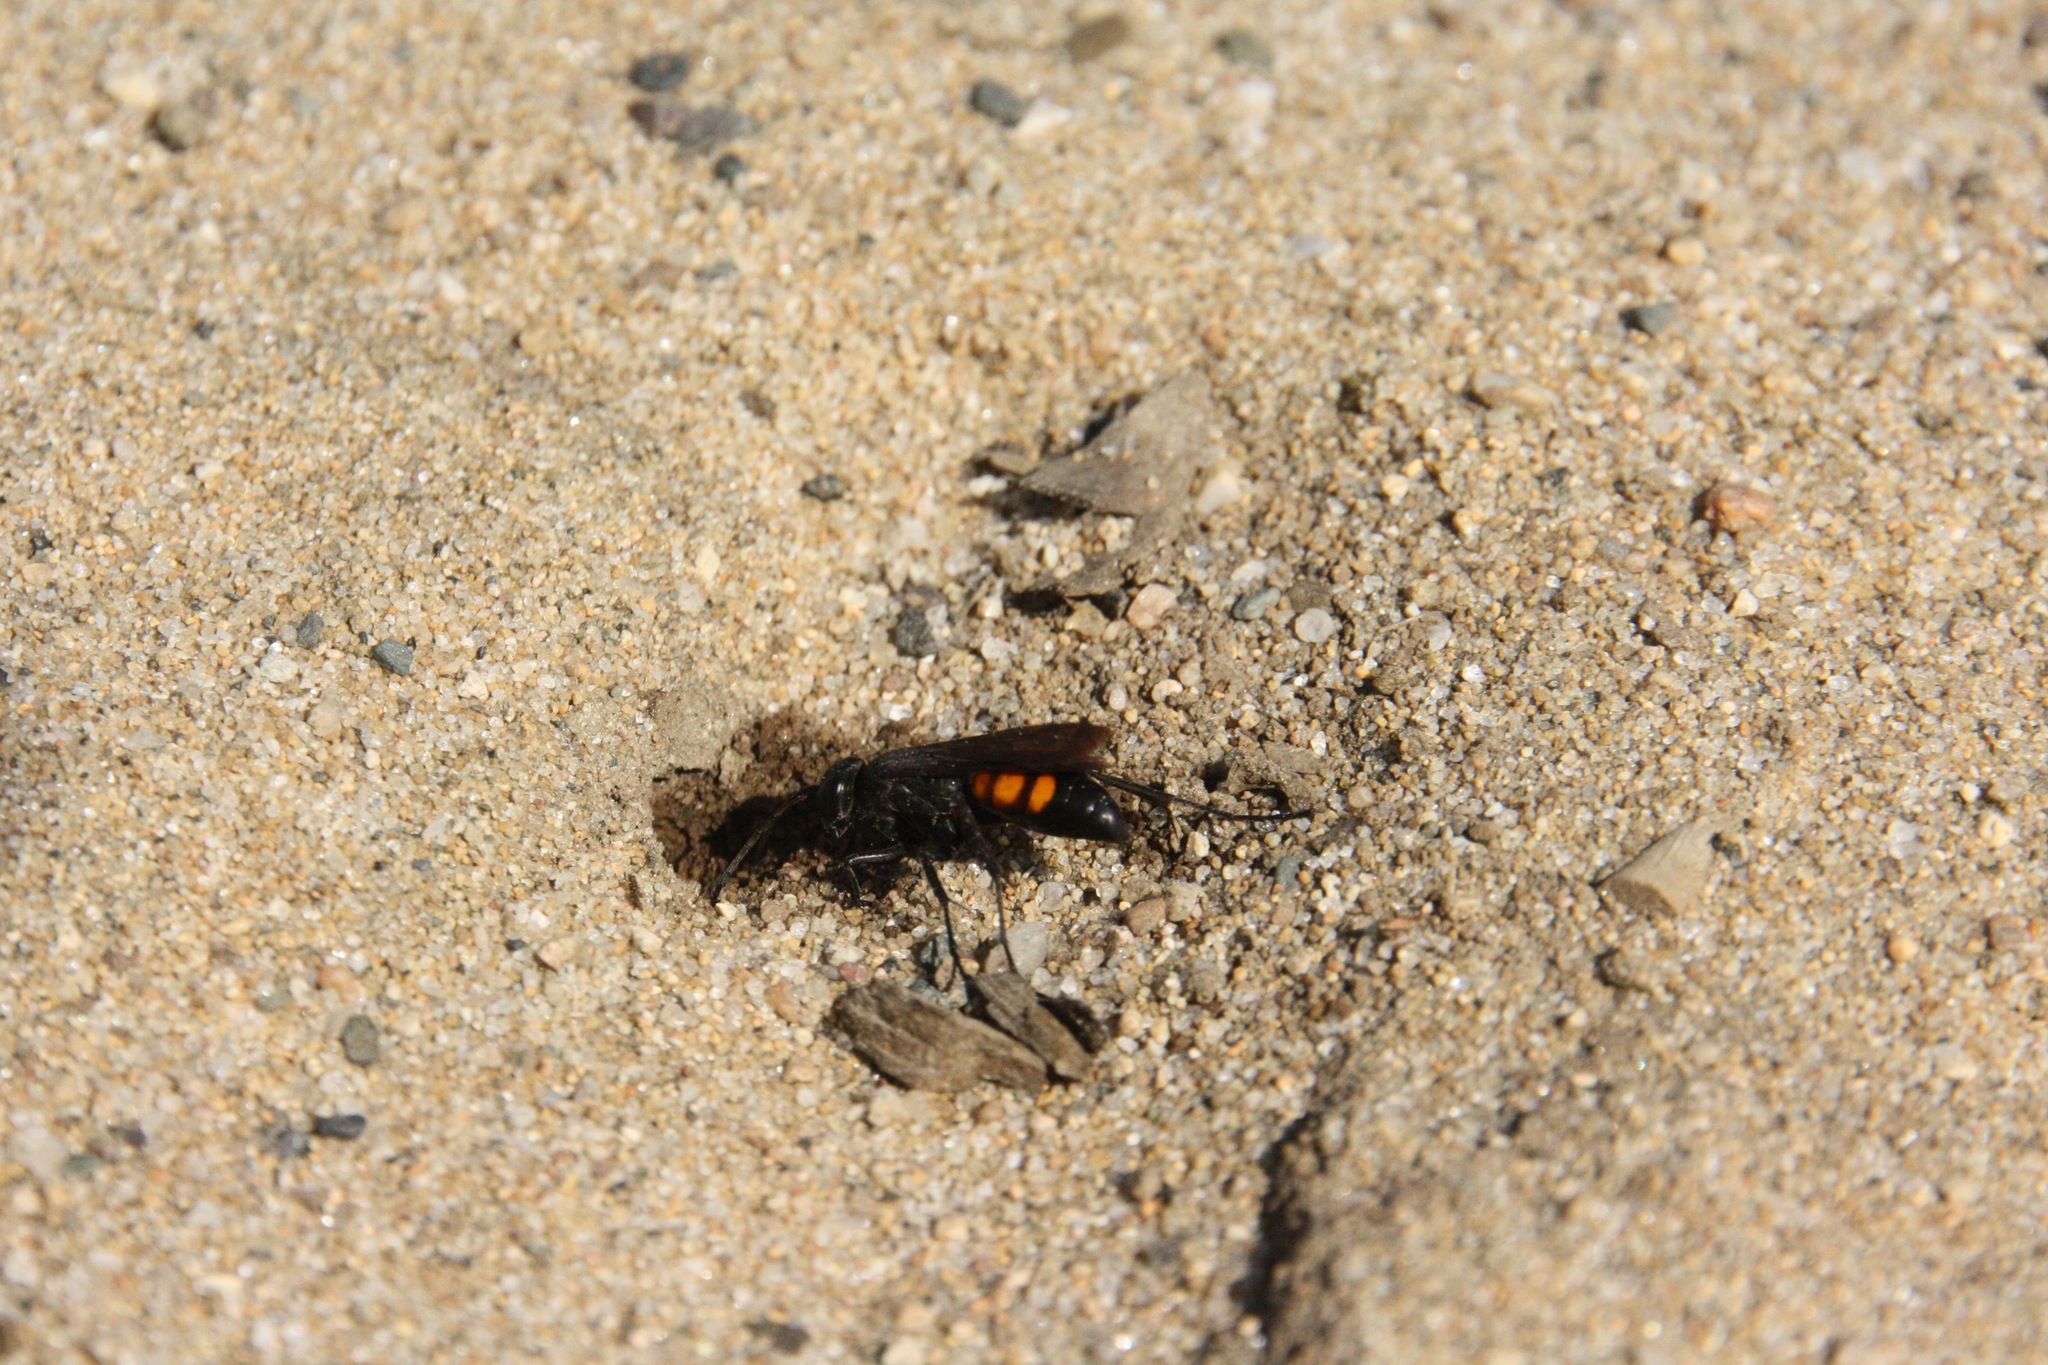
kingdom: Animalia
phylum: Arthropoda
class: Insecta
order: Hymenoptera
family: Pompilidae
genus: Anoplius
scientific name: Anoplius viaticus
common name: Black banded spider wasp
